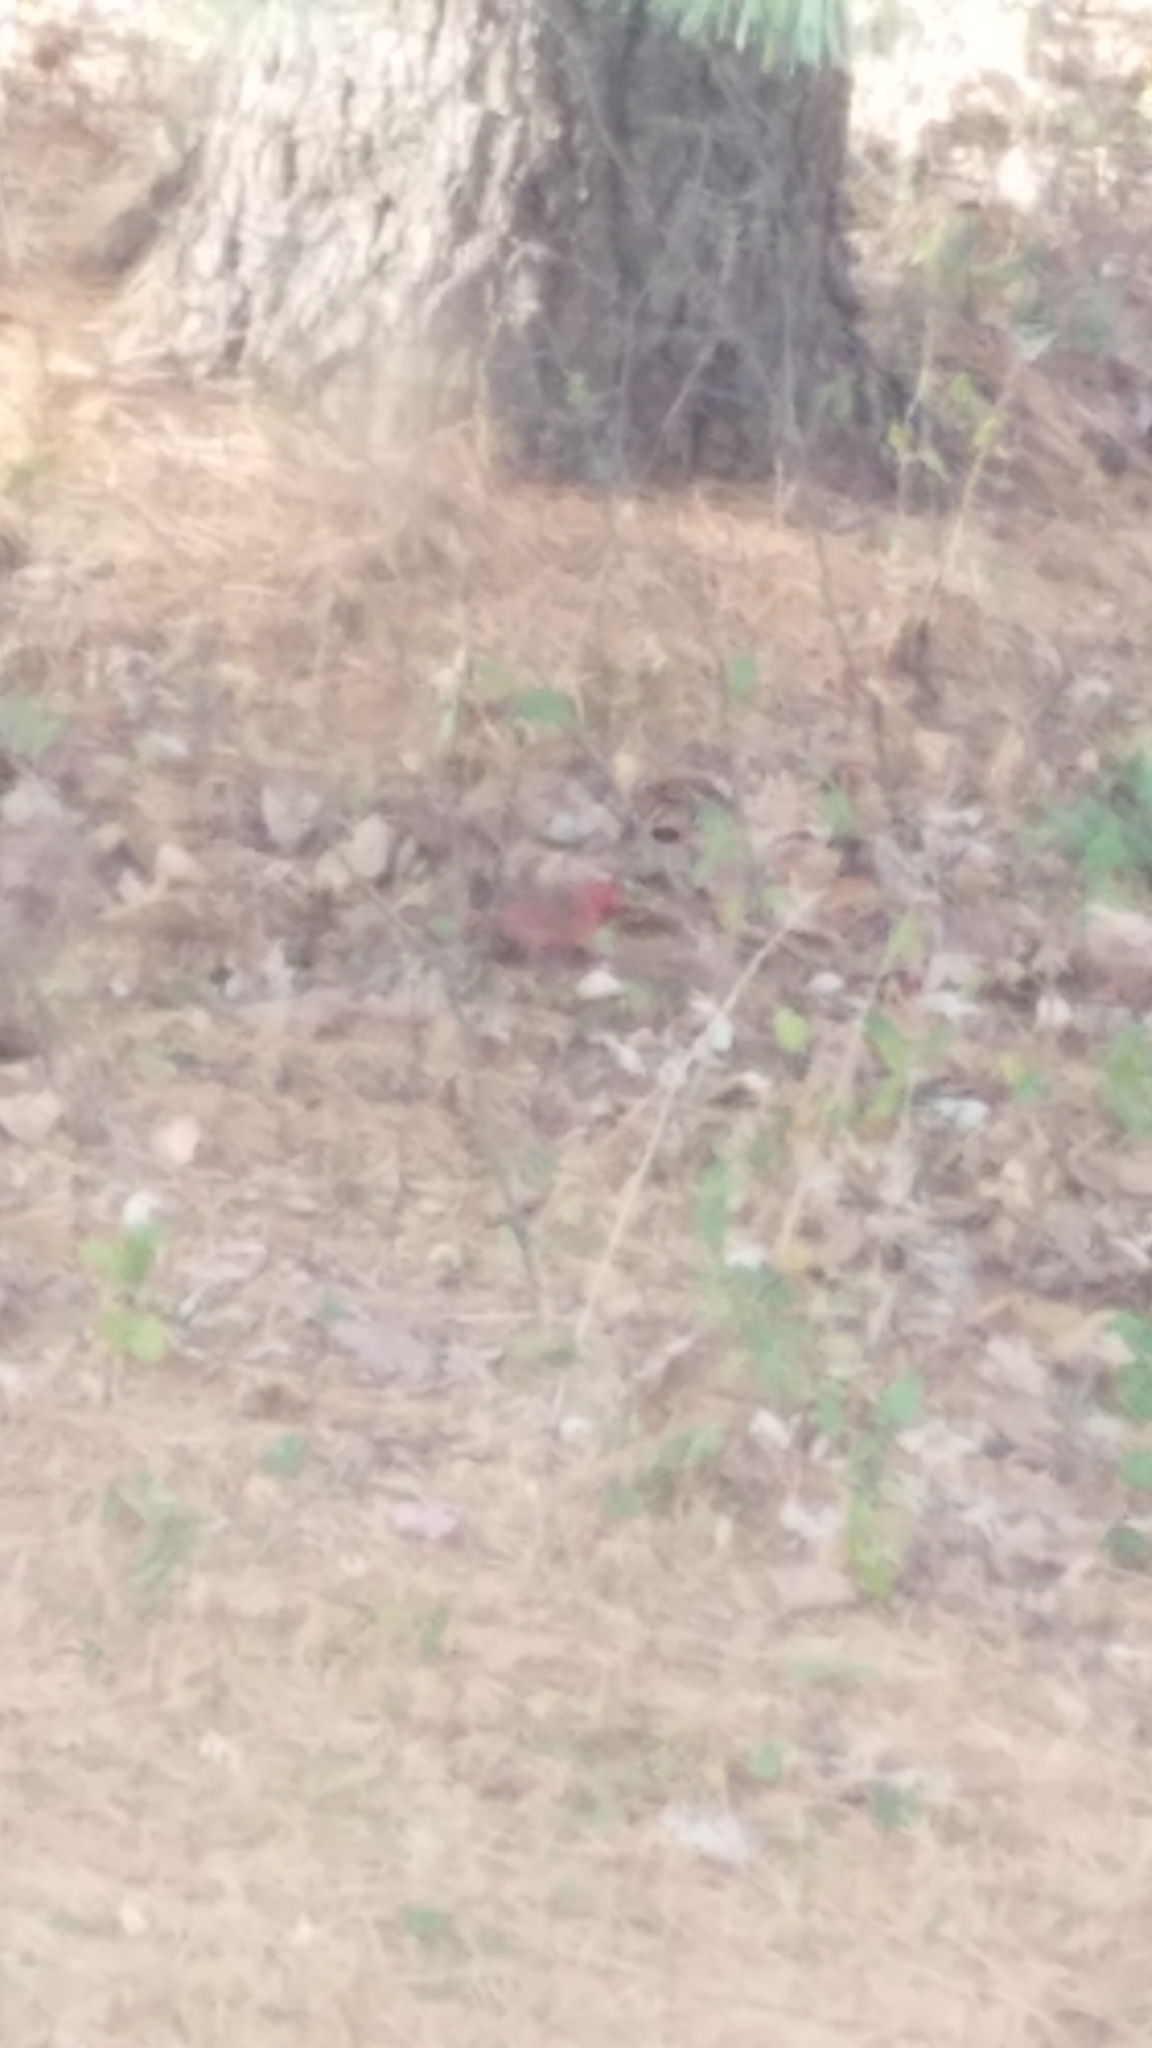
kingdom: Animalia
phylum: Chordata
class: Aves
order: Passeriformes
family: Cardinalidae
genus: Cardinalis
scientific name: Cardinalis cardinalis
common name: Northern cardinal
